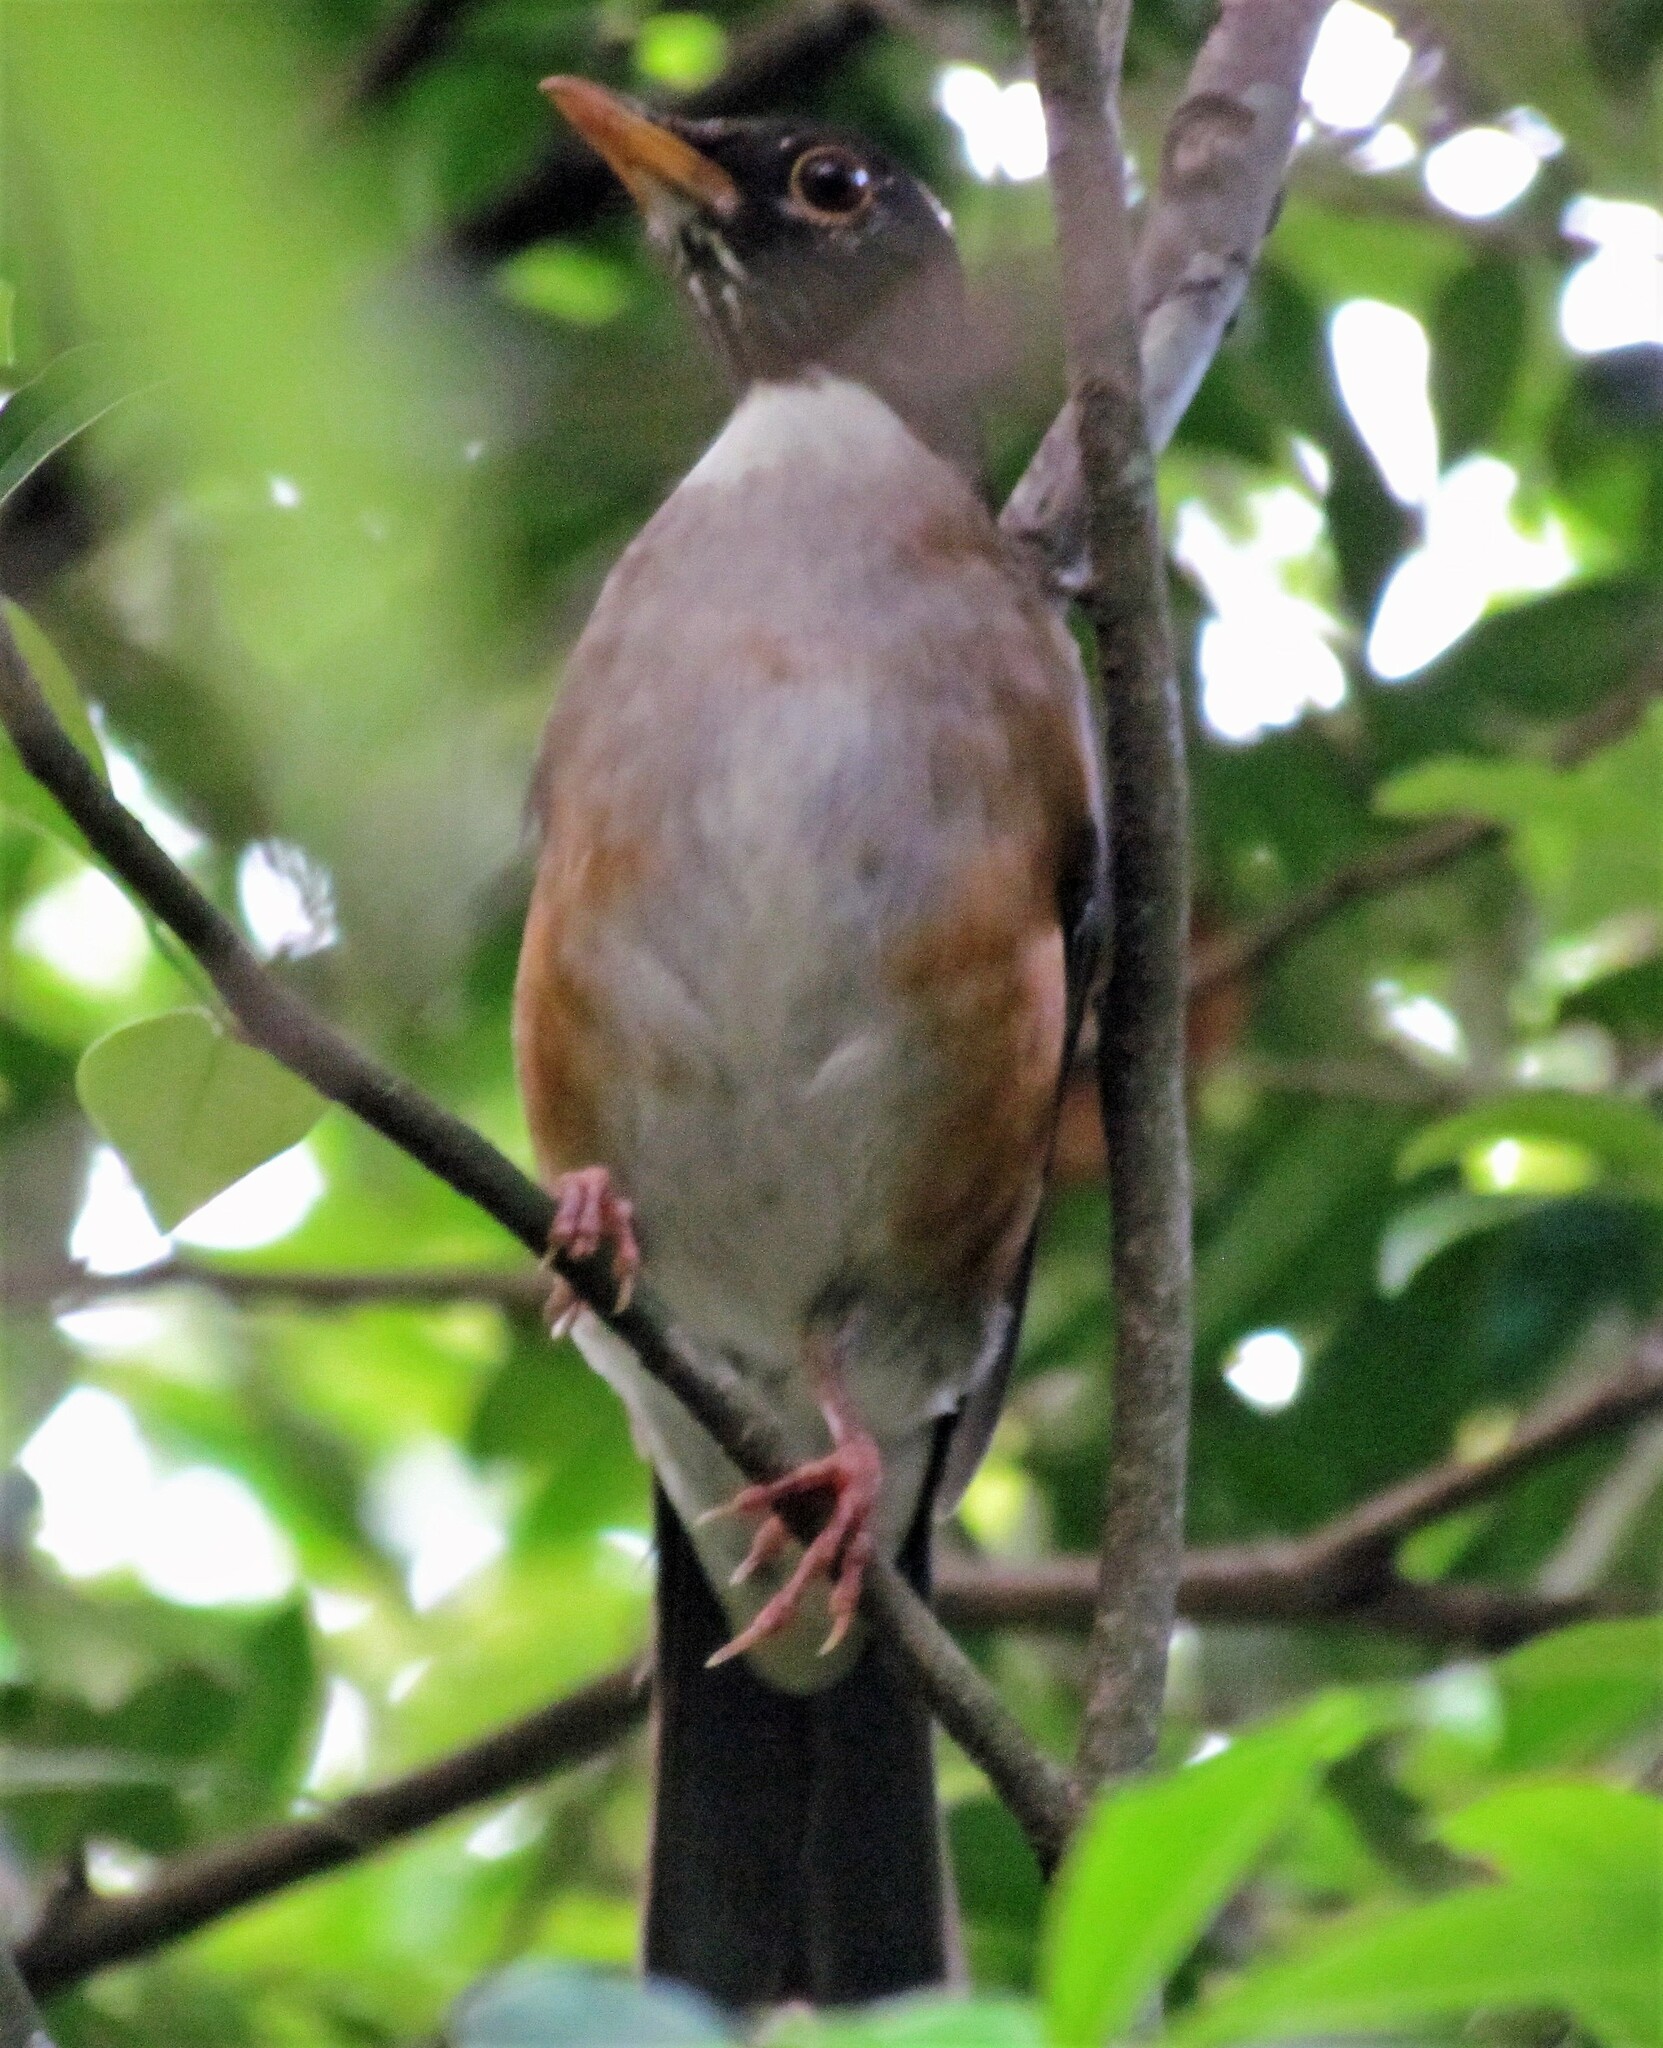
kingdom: Animalia
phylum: Chordata
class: Aves
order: Passeriformes
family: Turdidae
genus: Turdus
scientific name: Turdus albicollis
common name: White-necked thrush
